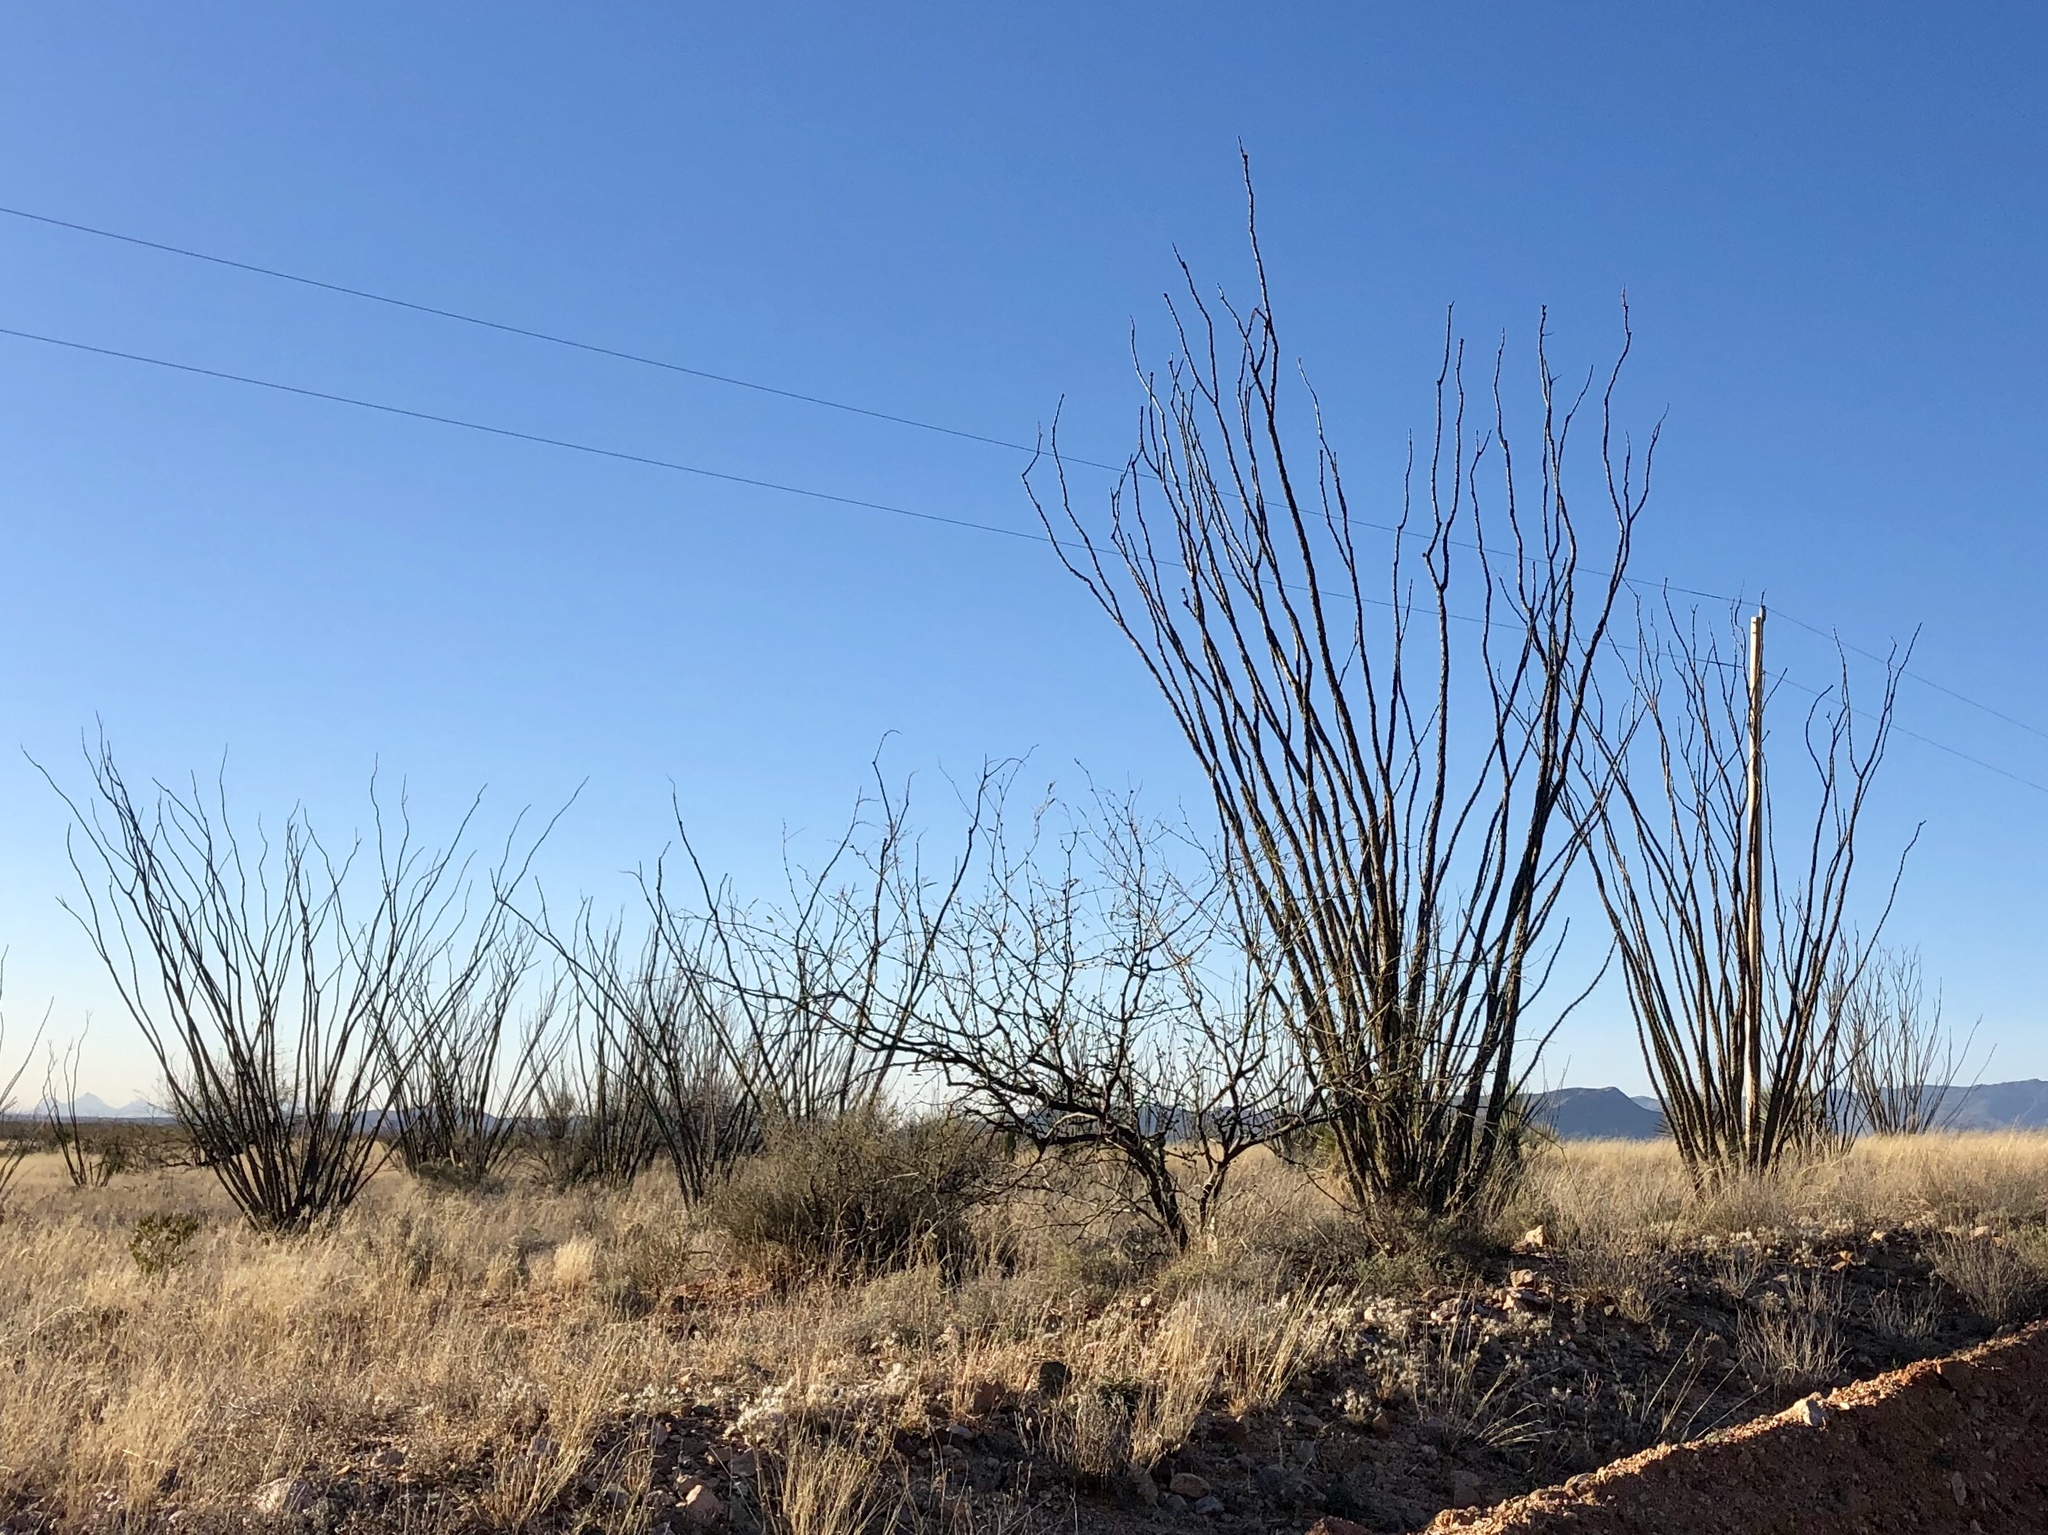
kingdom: Plantae
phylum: Tracheophyta
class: Magnoliopsida
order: Ericales
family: Fouquieriaceae
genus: Fouquieria
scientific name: Fouquieria splendens
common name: Vine-cactus
